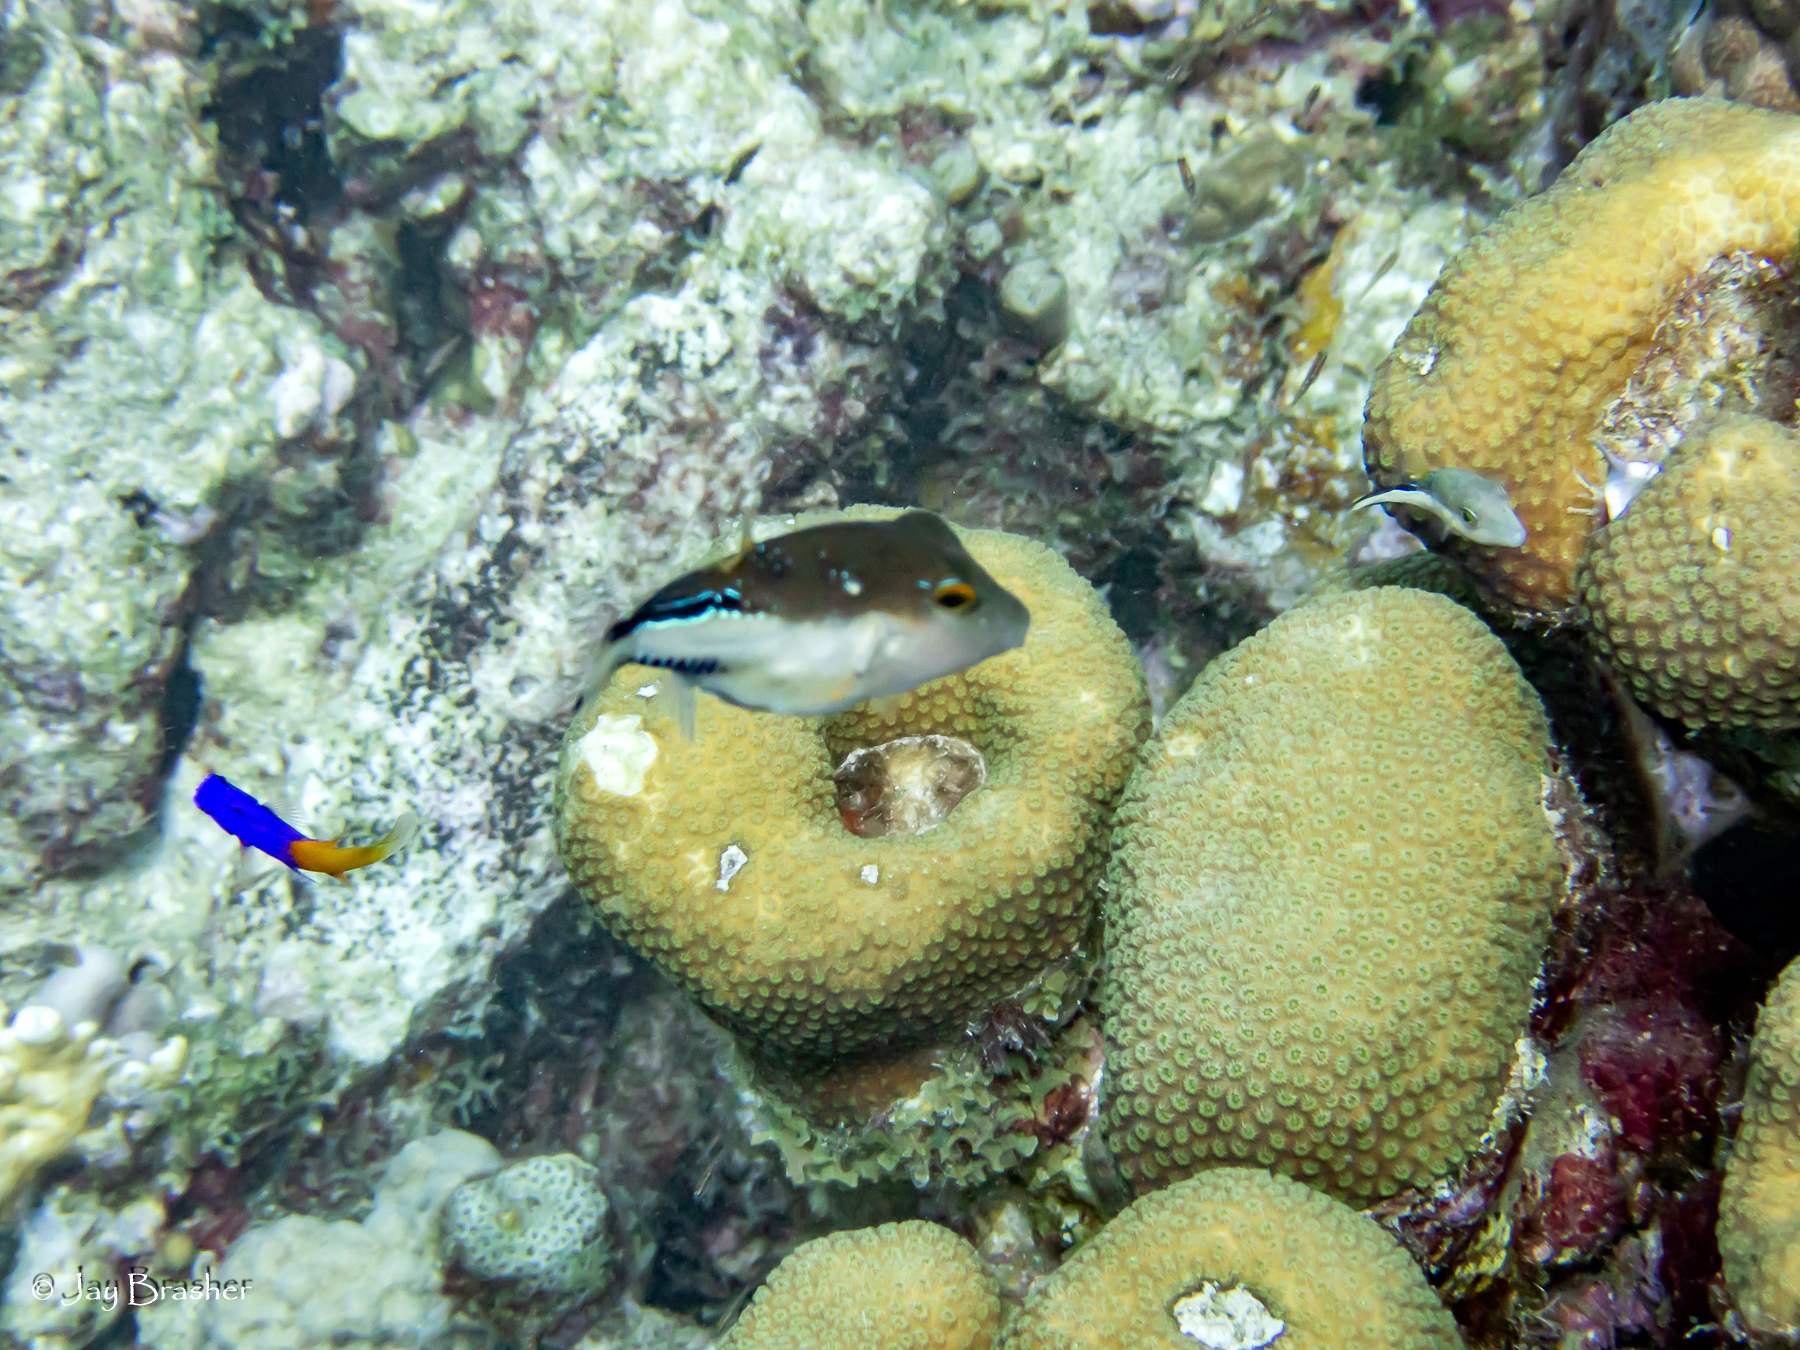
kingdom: Animalia
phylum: Chordata
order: Perciformes
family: Grammatidae
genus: Gramma
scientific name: Gramma loreto
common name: Fairy basslet
